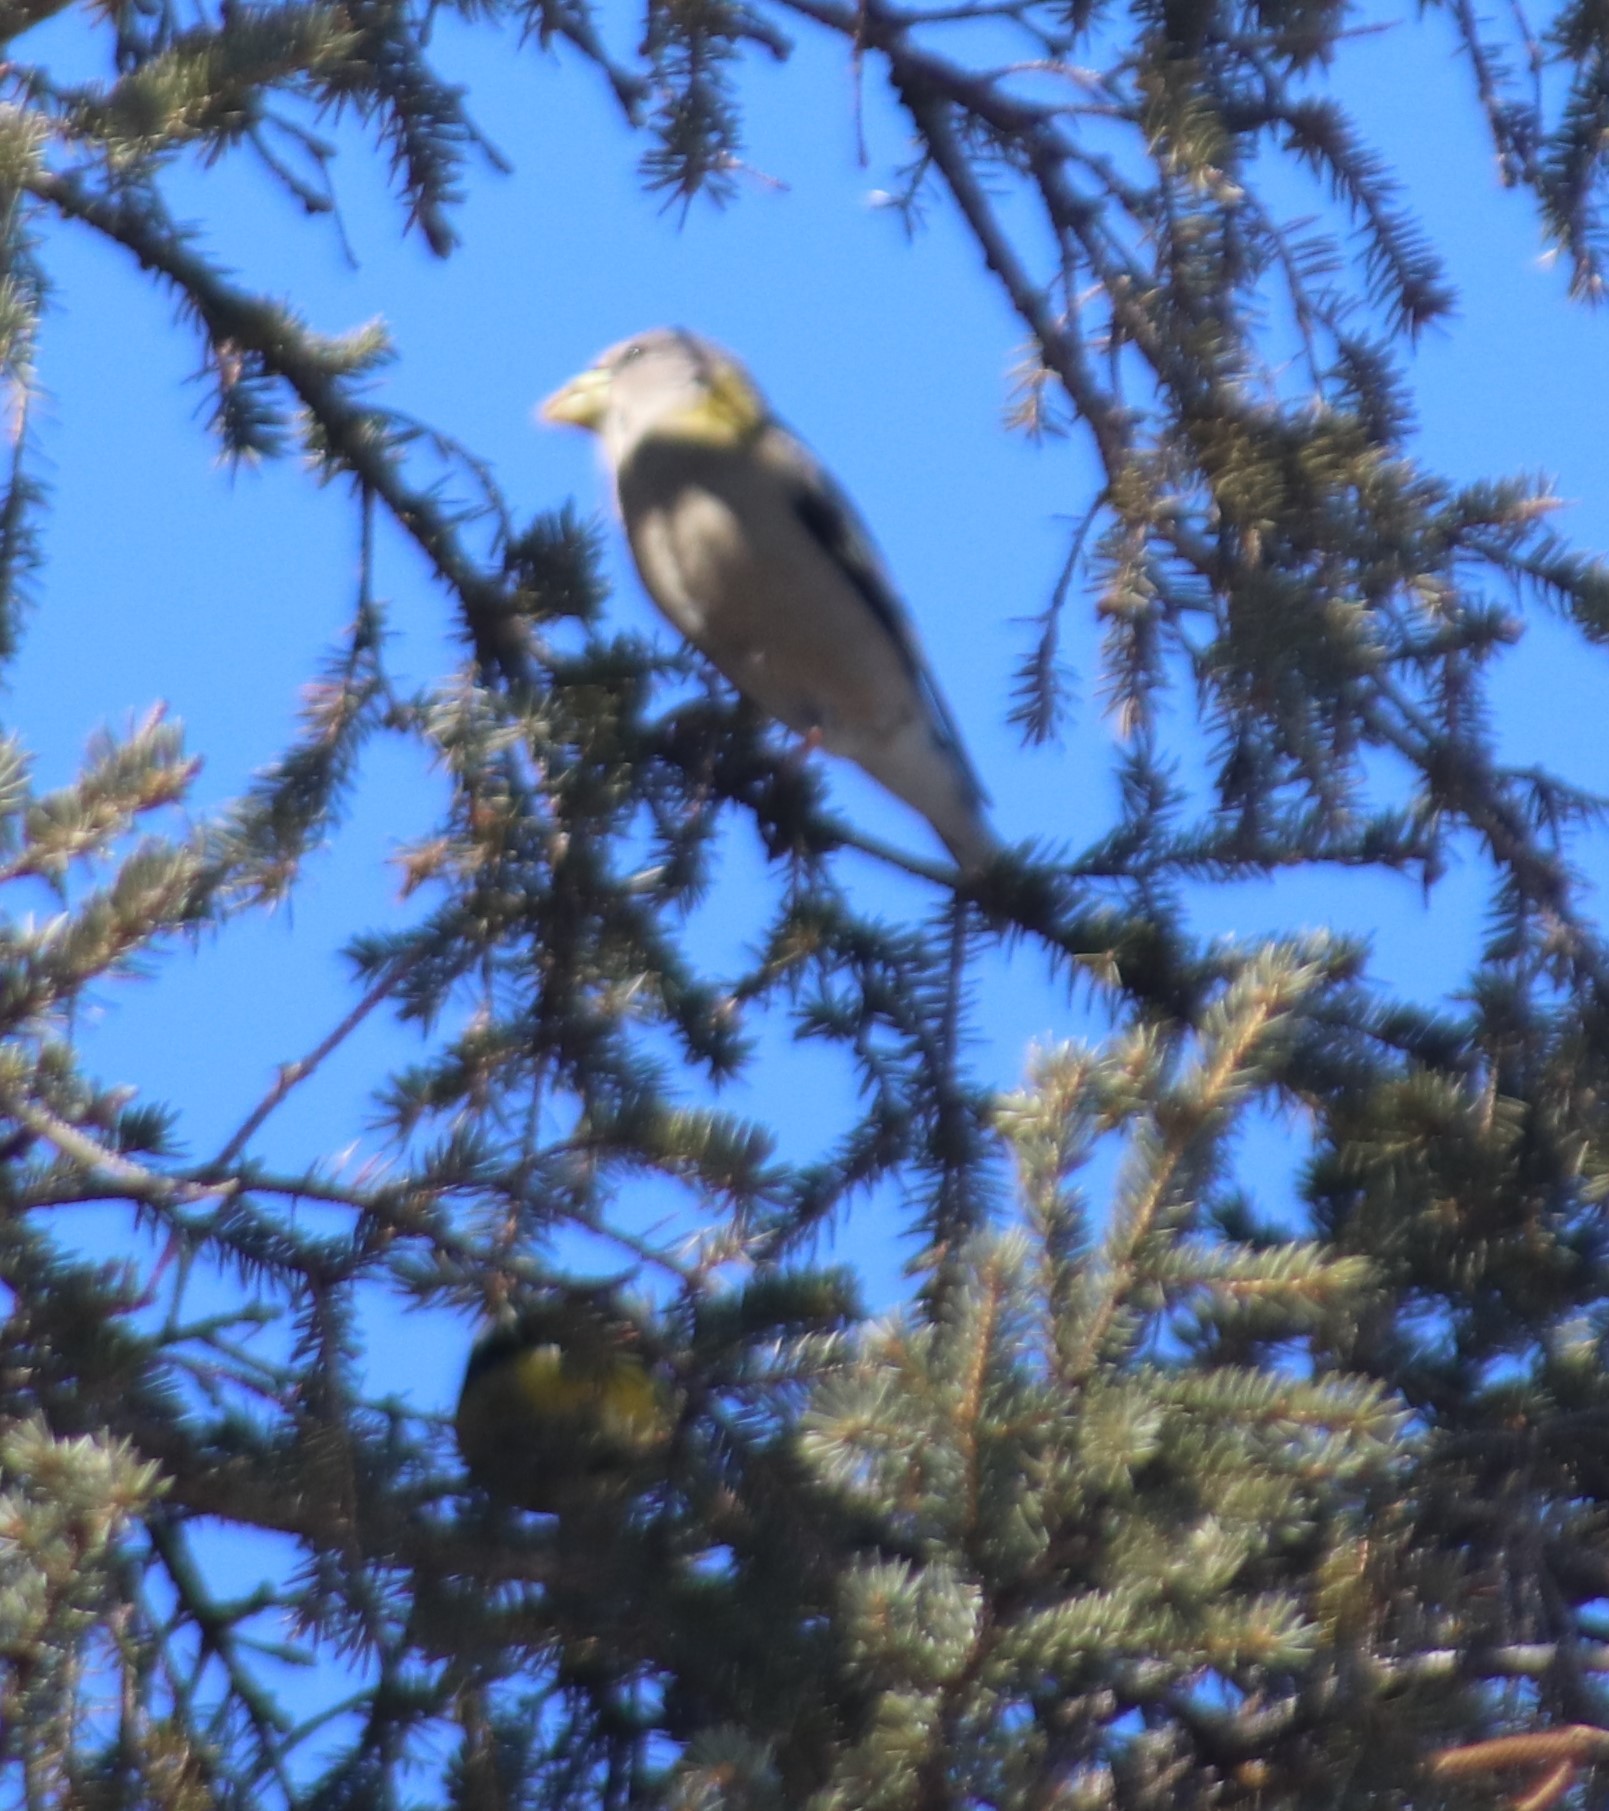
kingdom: Animalia
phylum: Chordata
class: Aves
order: Passeriformes
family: Fringillidae
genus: Hesperiphona
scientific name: Hesperiphona vespertina
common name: Evening grosbeak
